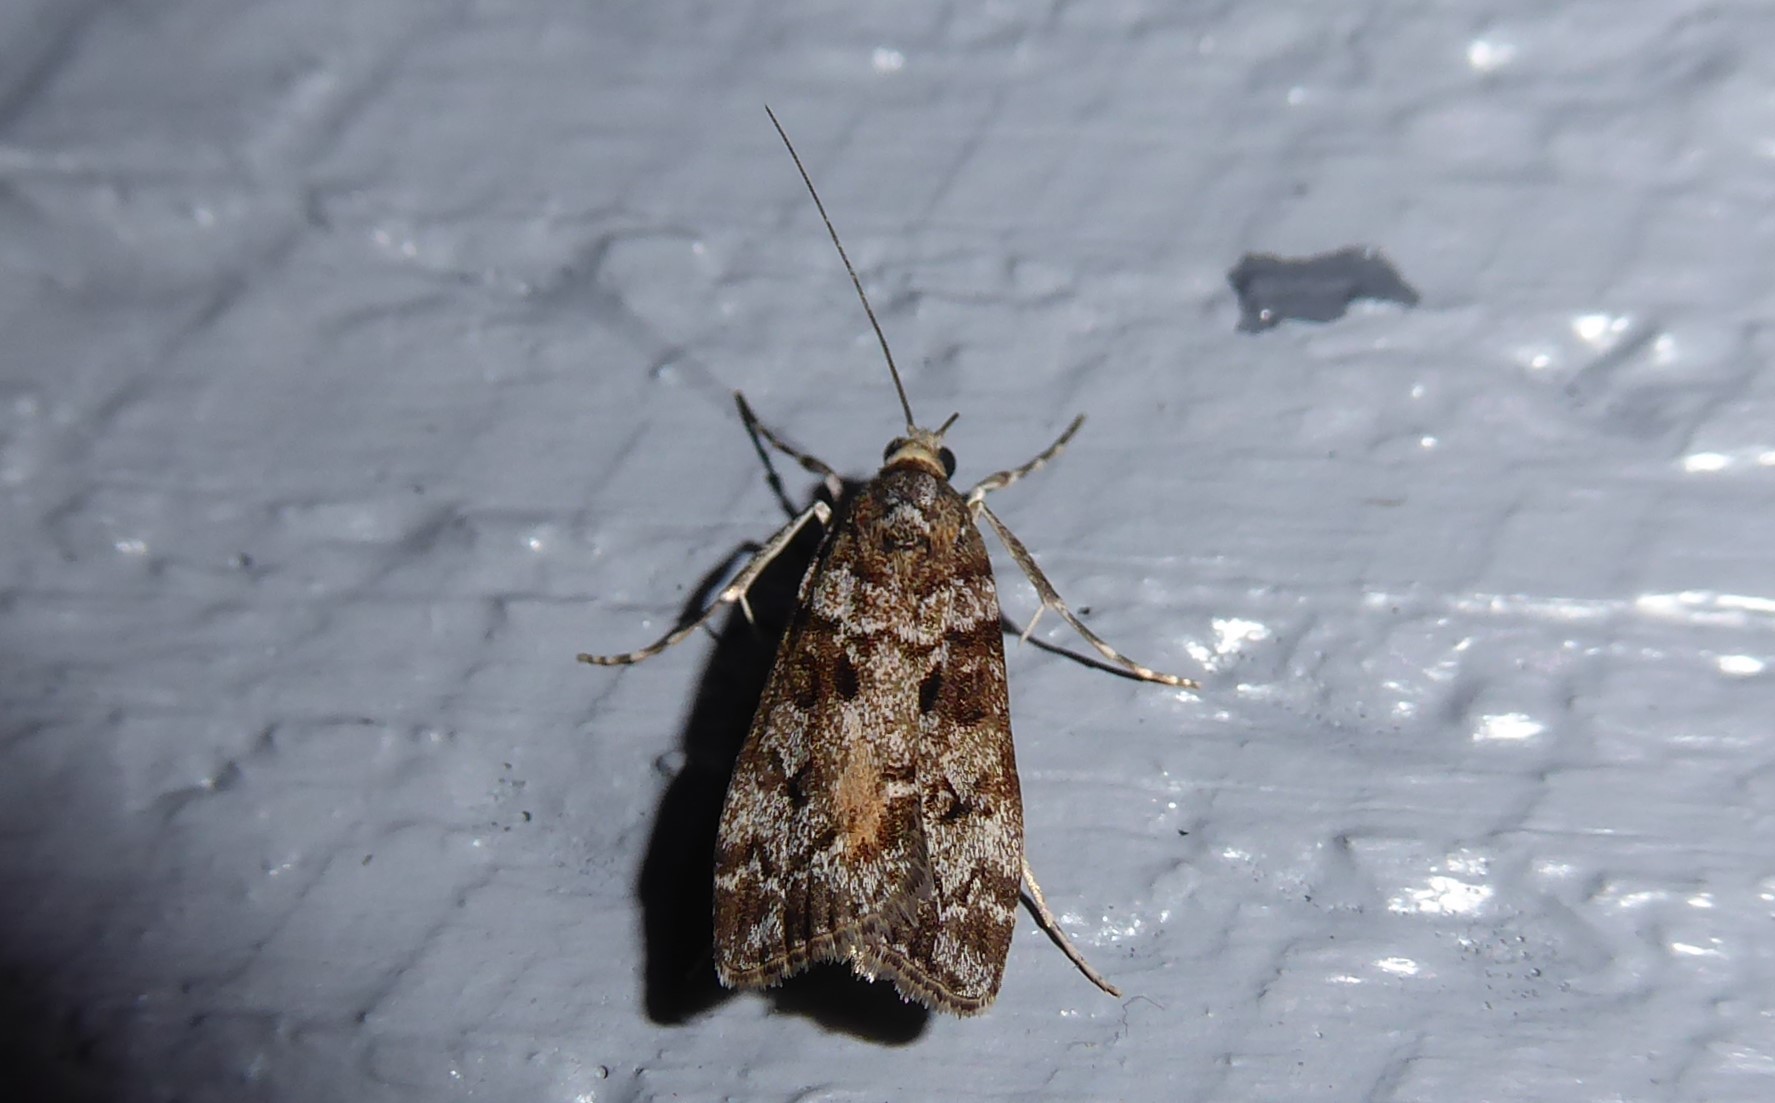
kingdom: Animalia
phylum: Arthropoda
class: Insecta
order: Lepidoptera
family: Crambidae
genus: Eudonia
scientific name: Eudonia submarginalis
